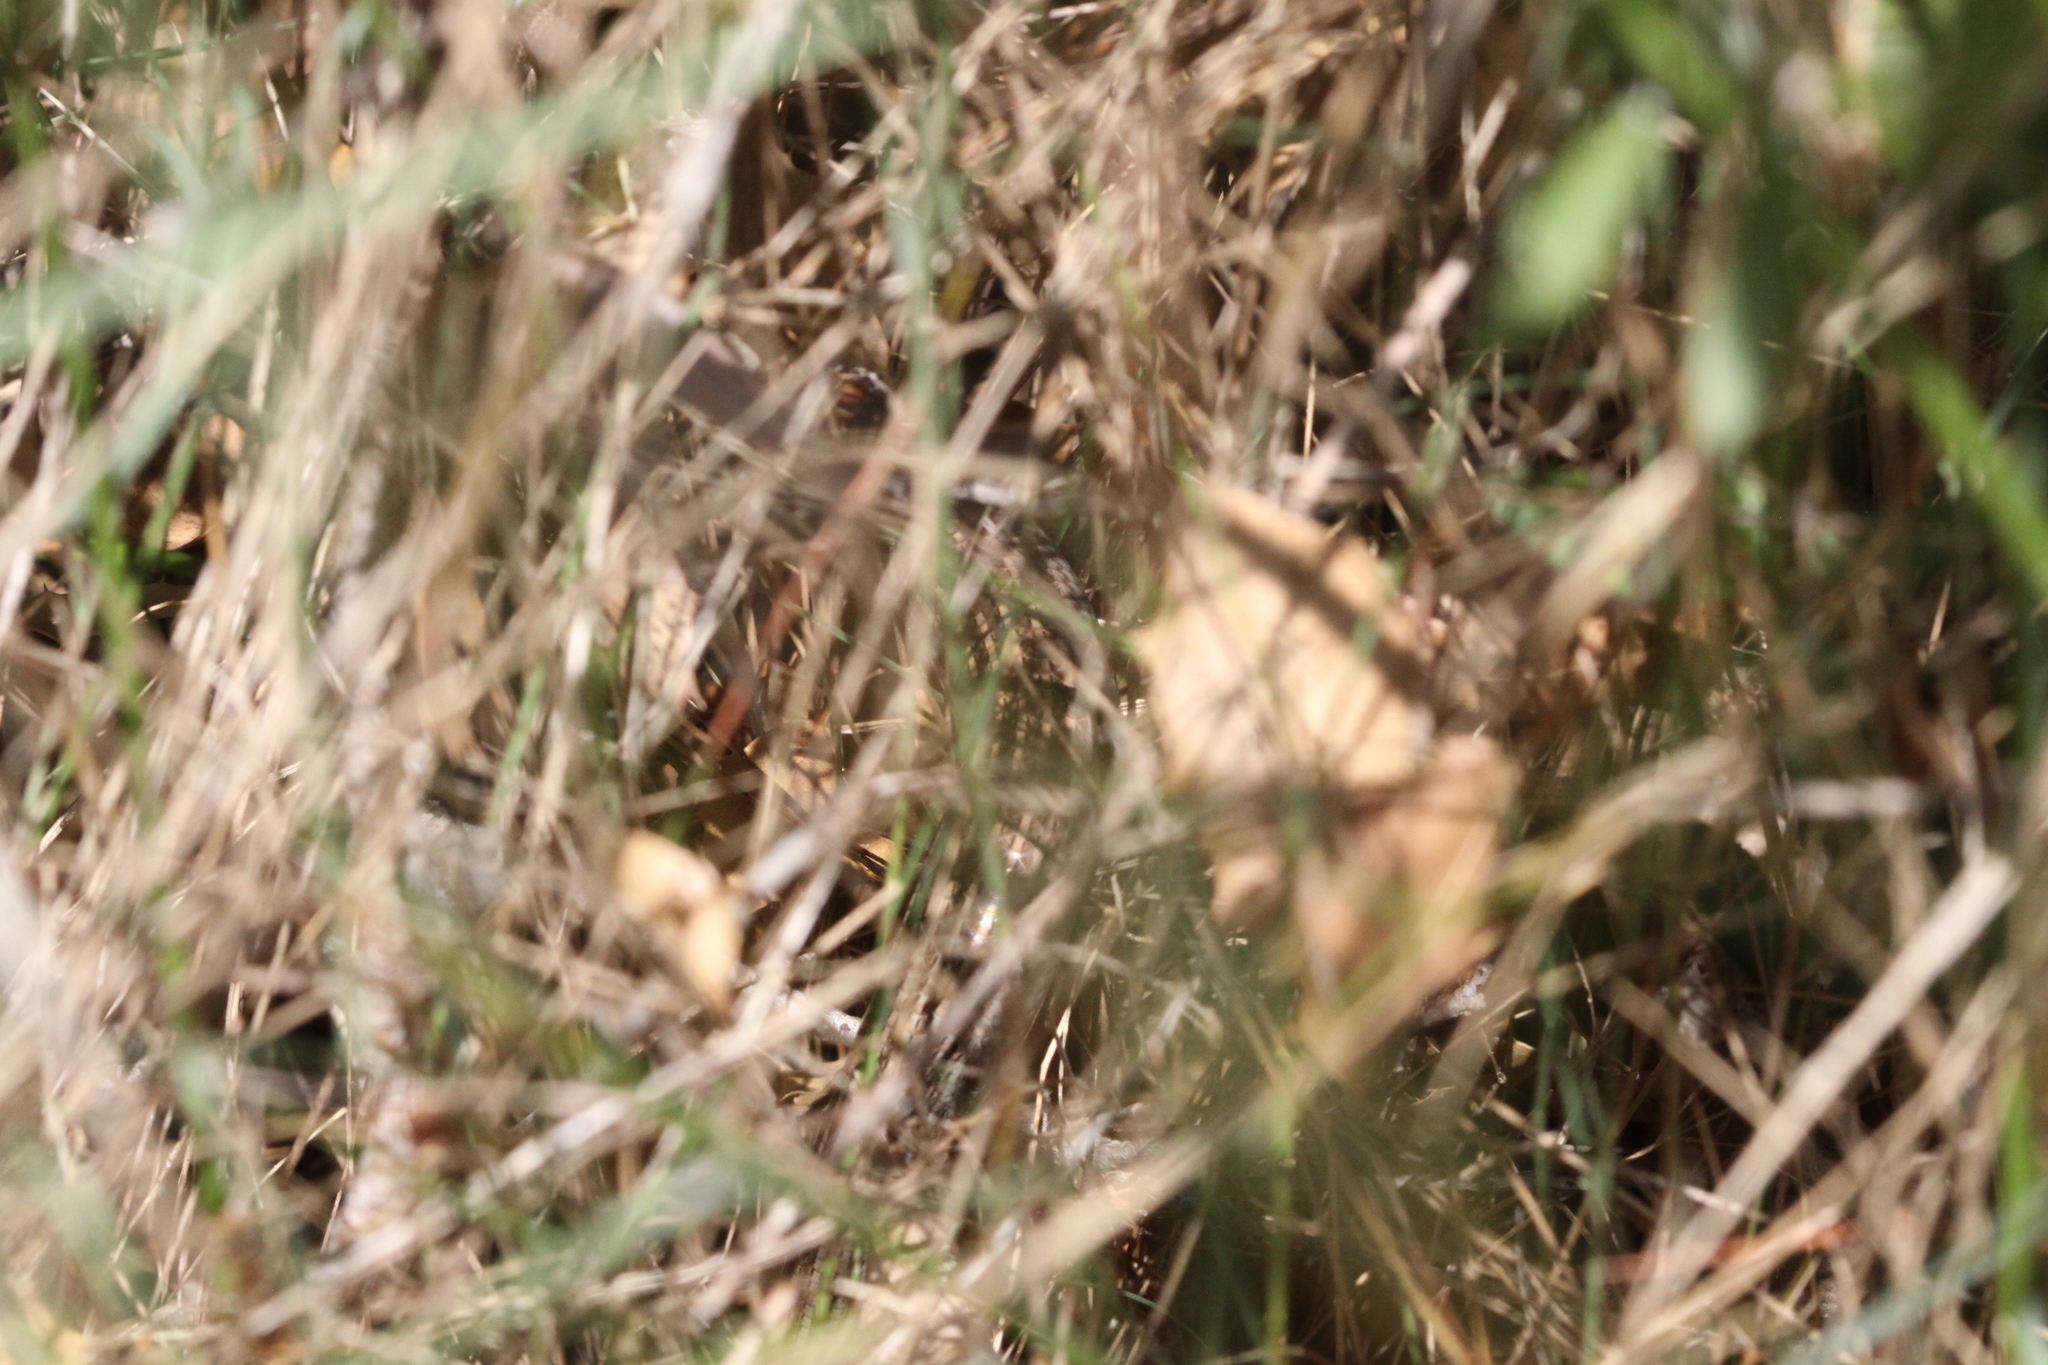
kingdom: Animalia
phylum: Chordata
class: Squamata
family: Scincidae
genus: Chalcides
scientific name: Chalcides striatus
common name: Western (or iberian) three-toed skink
